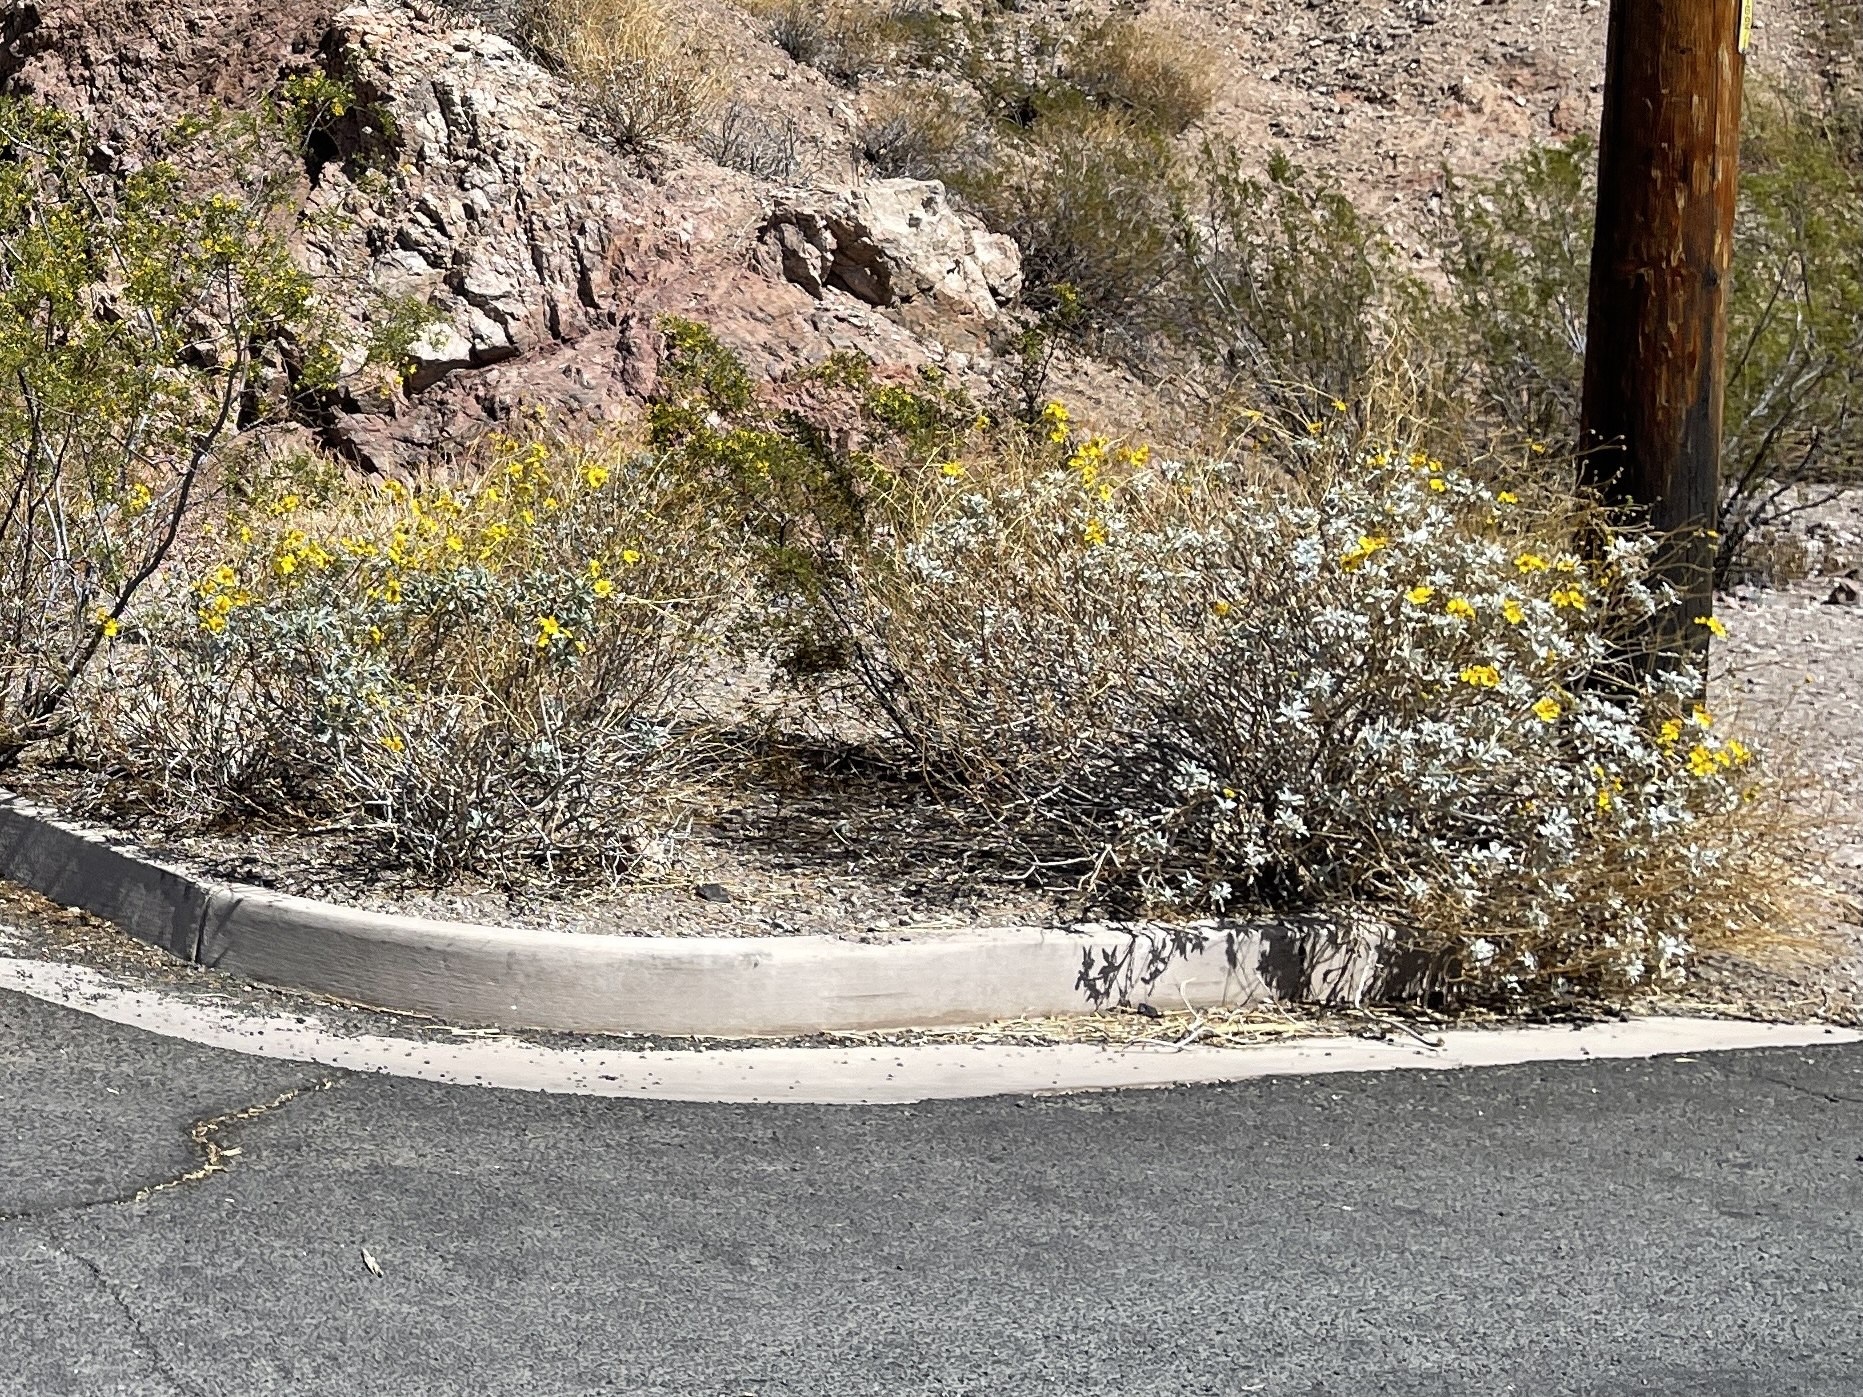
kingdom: Plantae
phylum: Tracheophyta
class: Magnoliopsida
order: Asterales
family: Asteraceae
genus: Encelia
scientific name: Encelia farinosa
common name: Brittlebush
